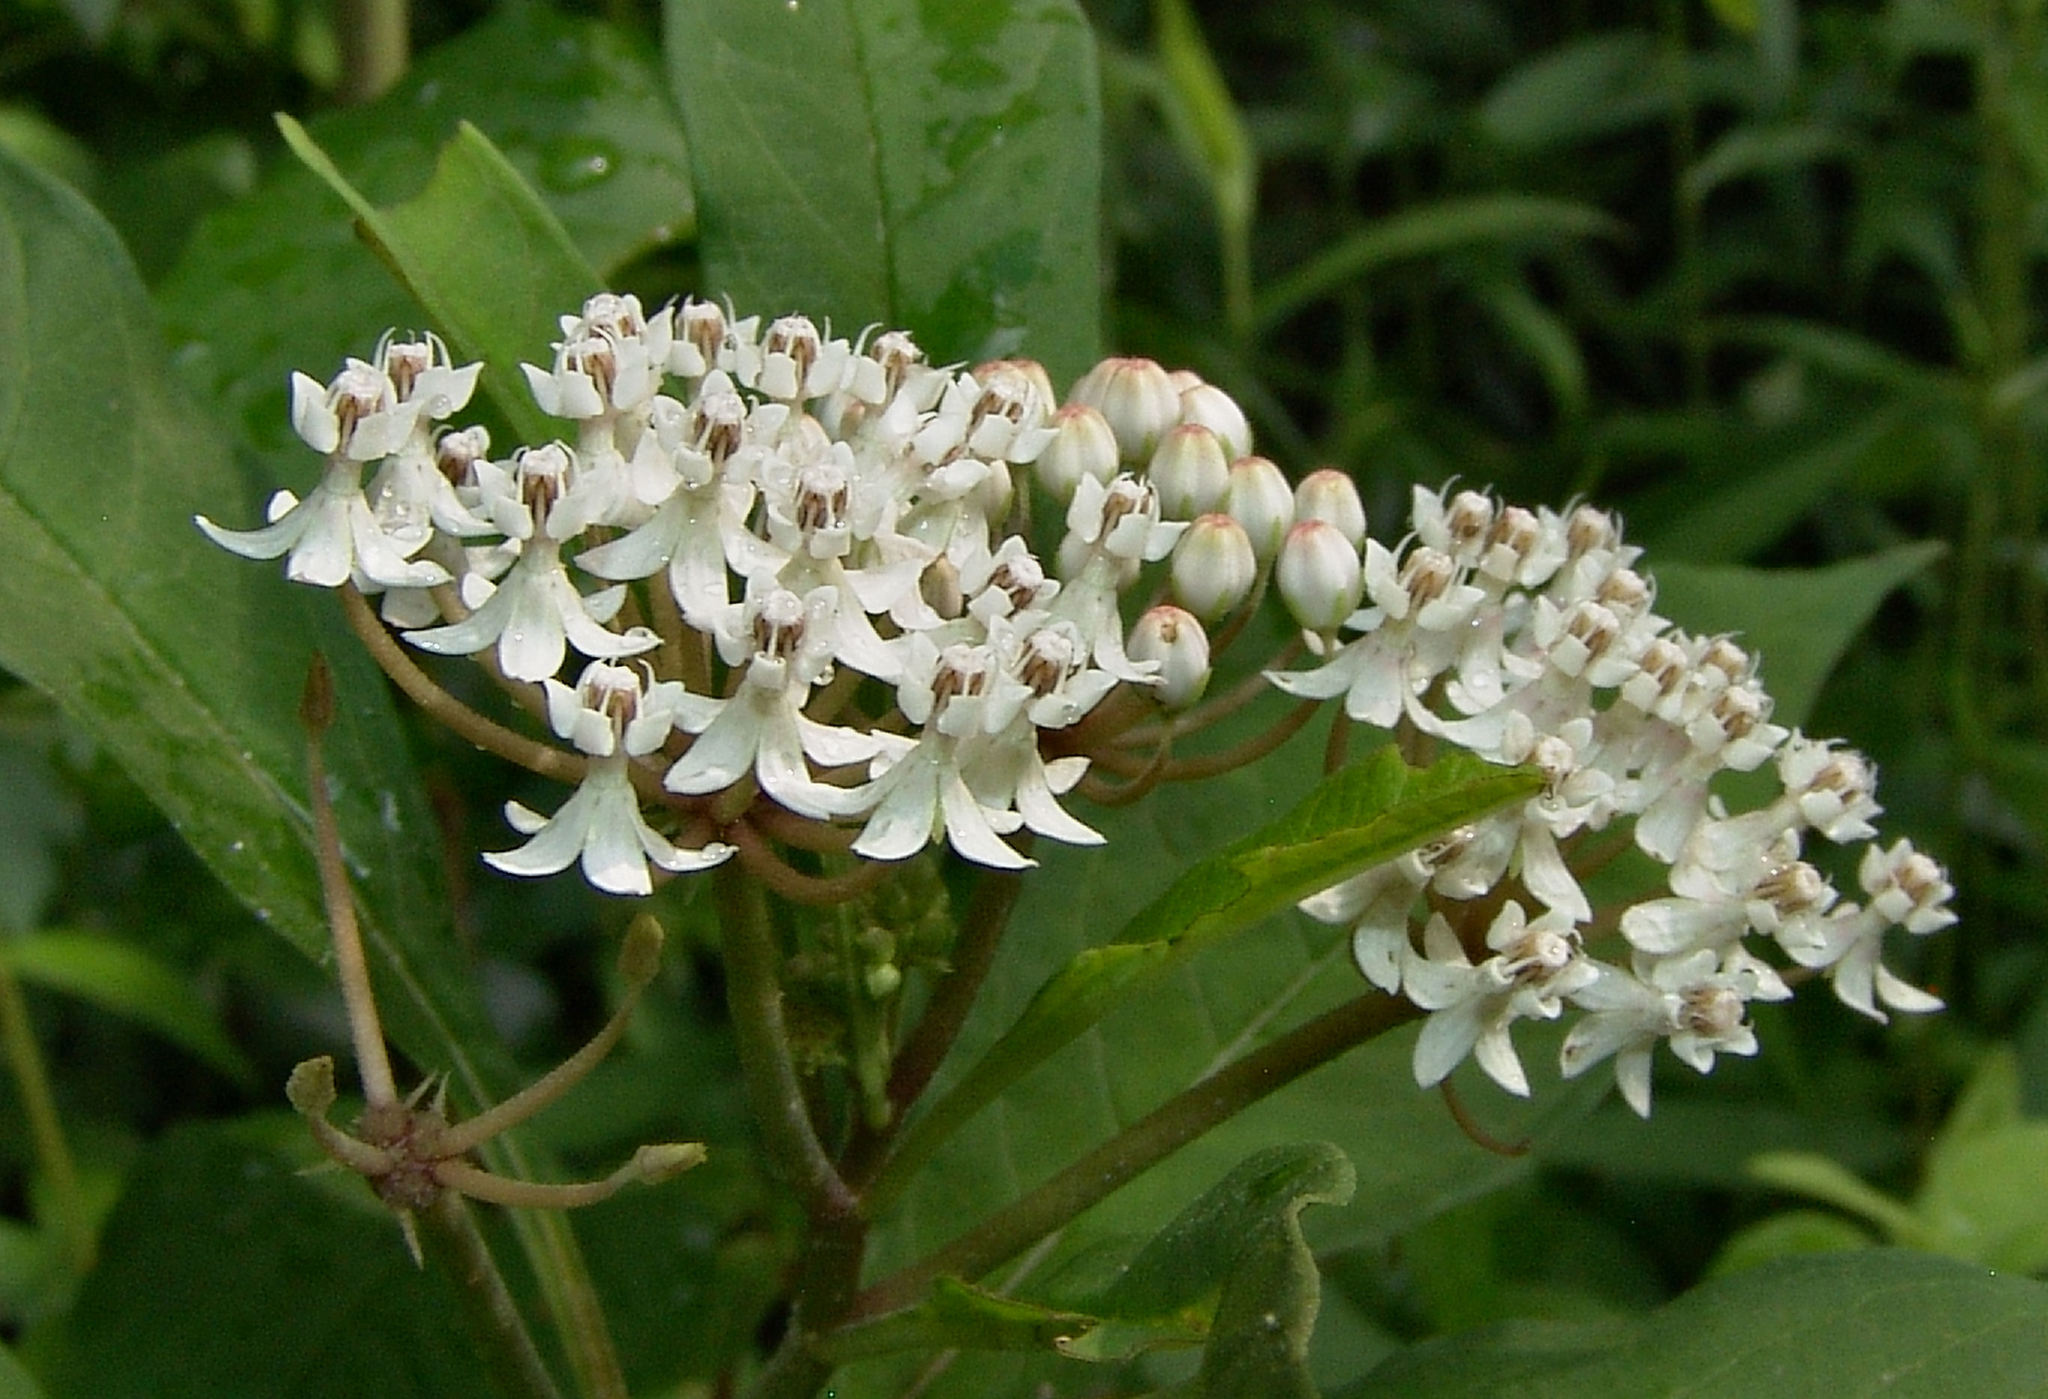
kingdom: Plantae
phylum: Tracheophyta
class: Magnoliopsida
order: Gentianales
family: Apocynaceae
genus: Asclepias
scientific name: Asclepias perennis
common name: Smooth-seed milkweed
